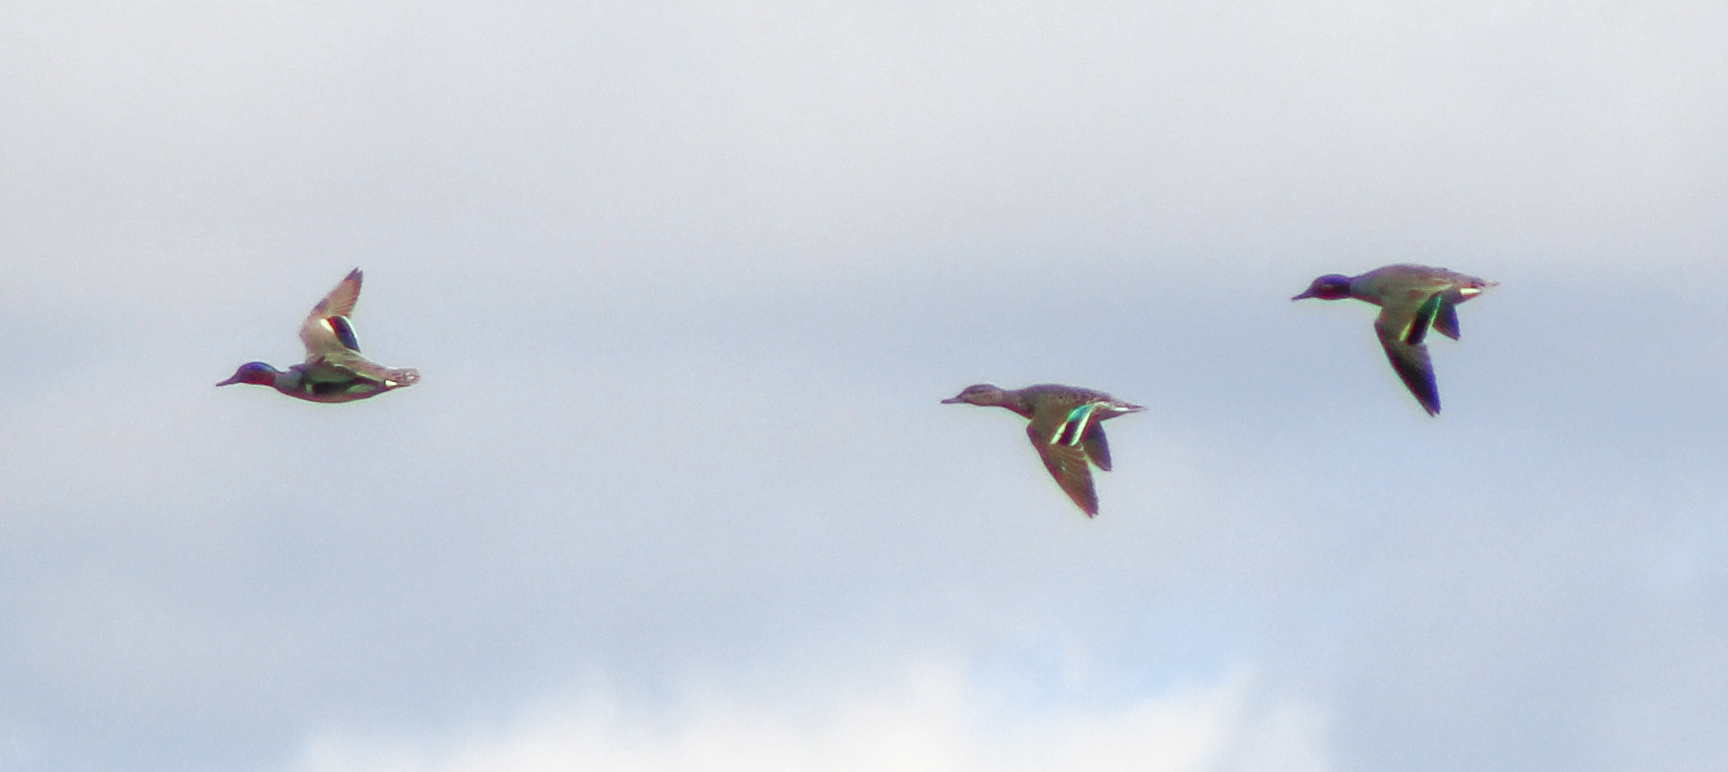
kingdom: Animalia
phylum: Chordata
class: Aves
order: Anseriformes
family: Anatidae
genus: Anas
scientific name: Anas carolinensis
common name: Green-winged teal
